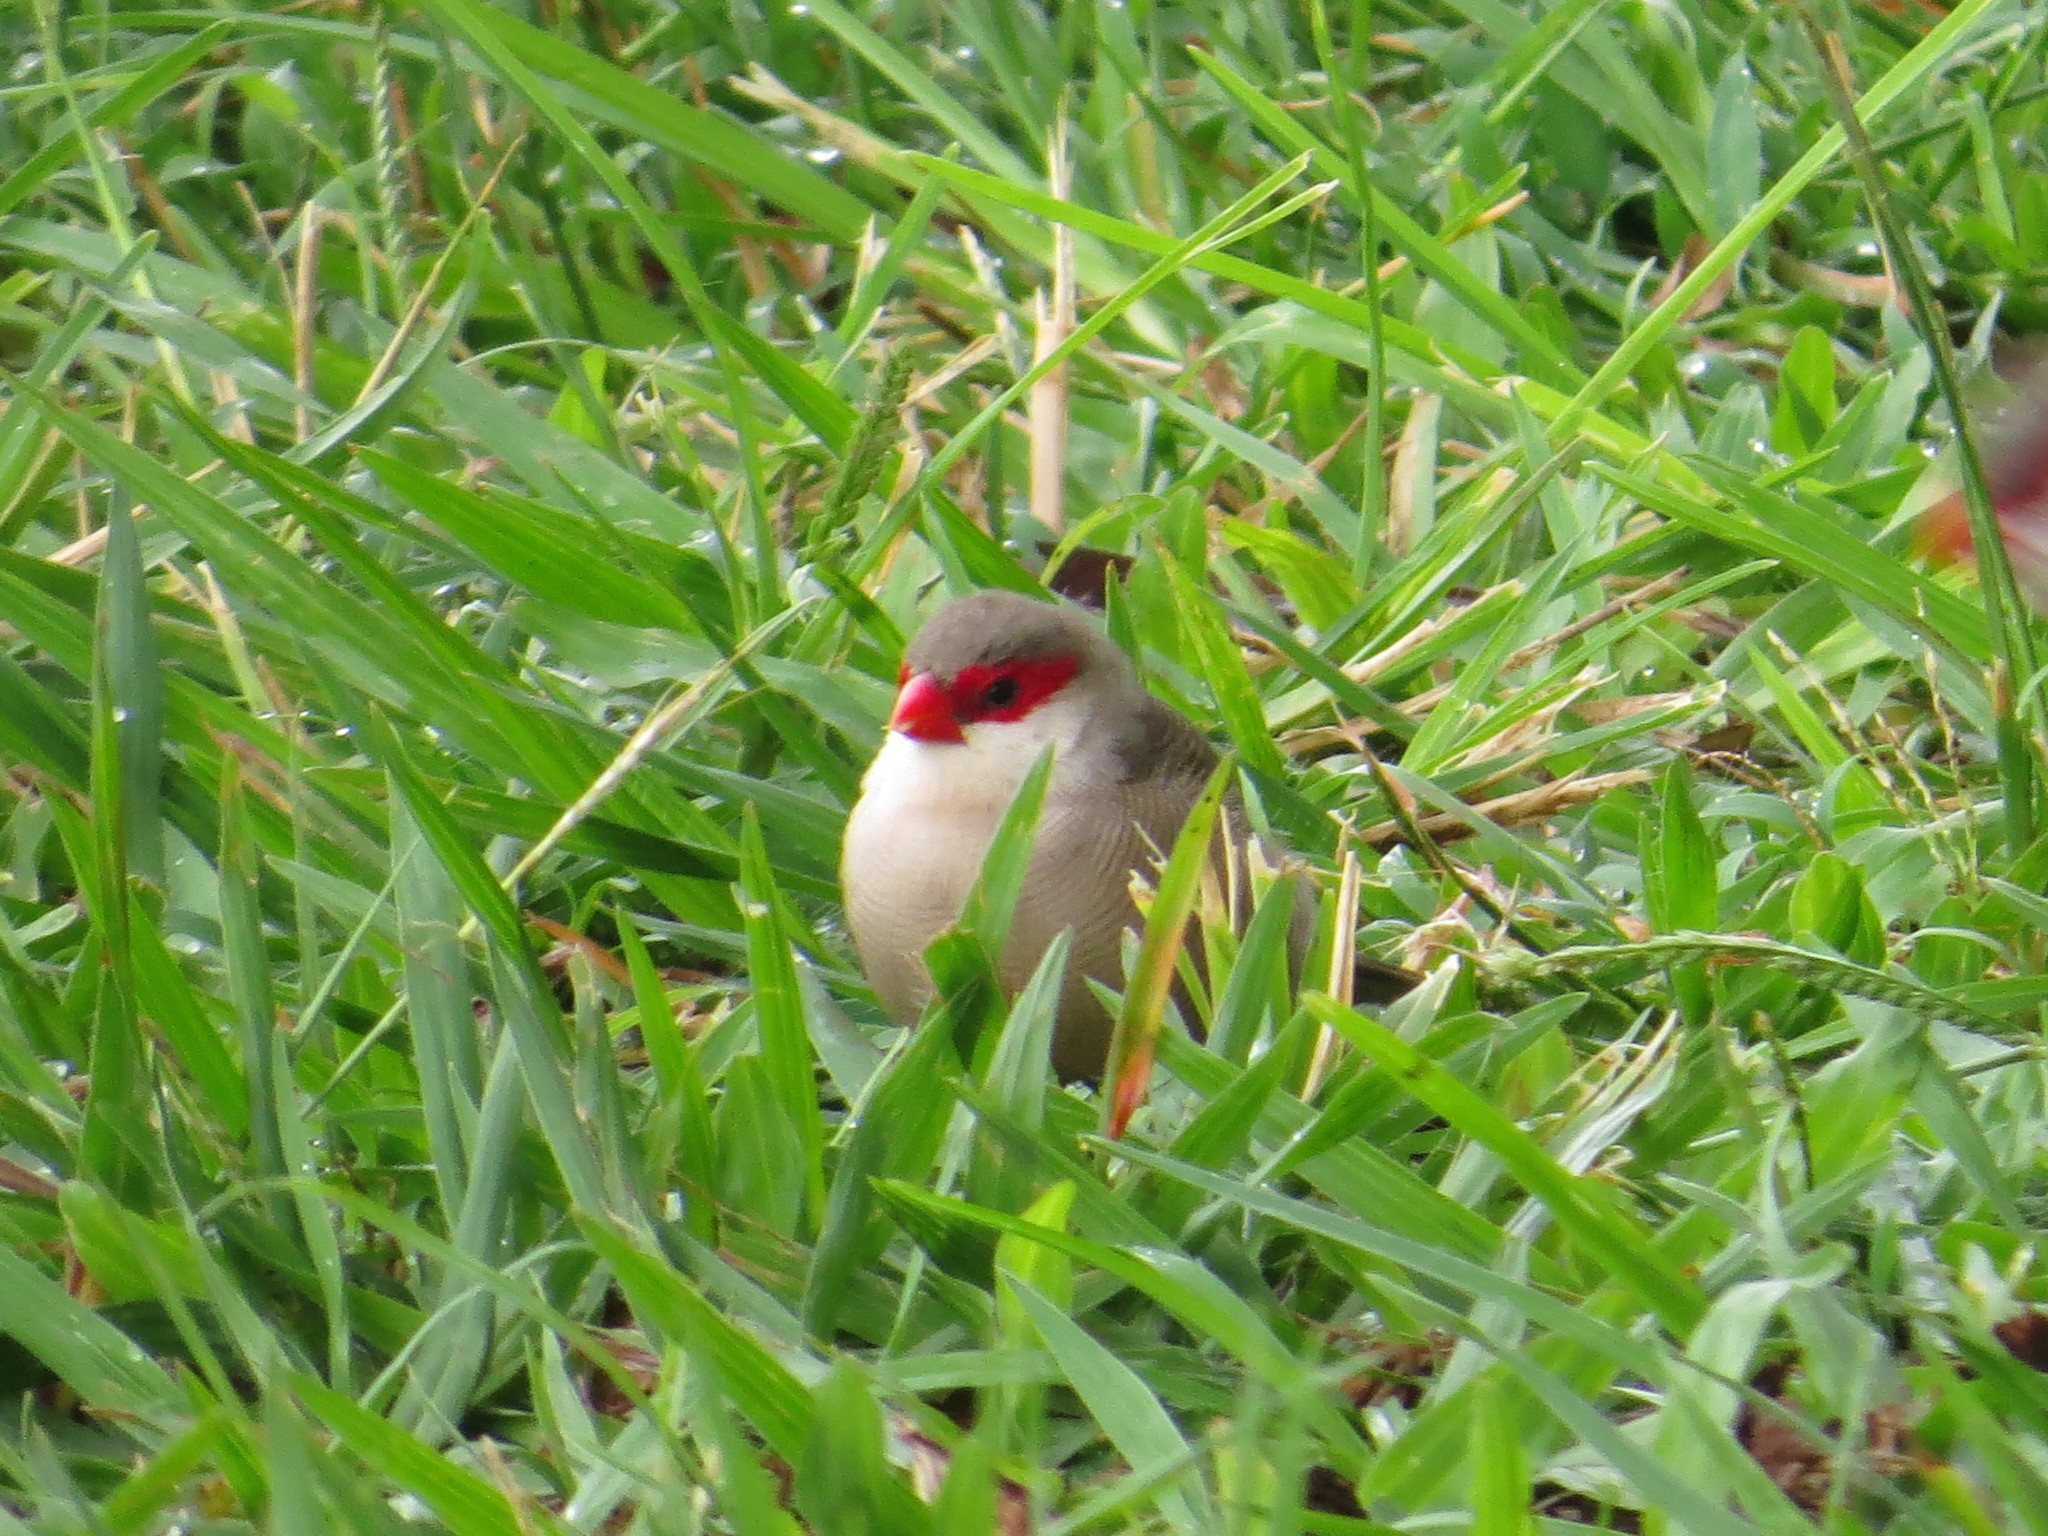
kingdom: Animalia
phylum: Chordata
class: Aves
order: Passeriformes
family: Estrildidae
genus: Estrilda
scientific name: Estrilda astrild
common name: Common waxbill
